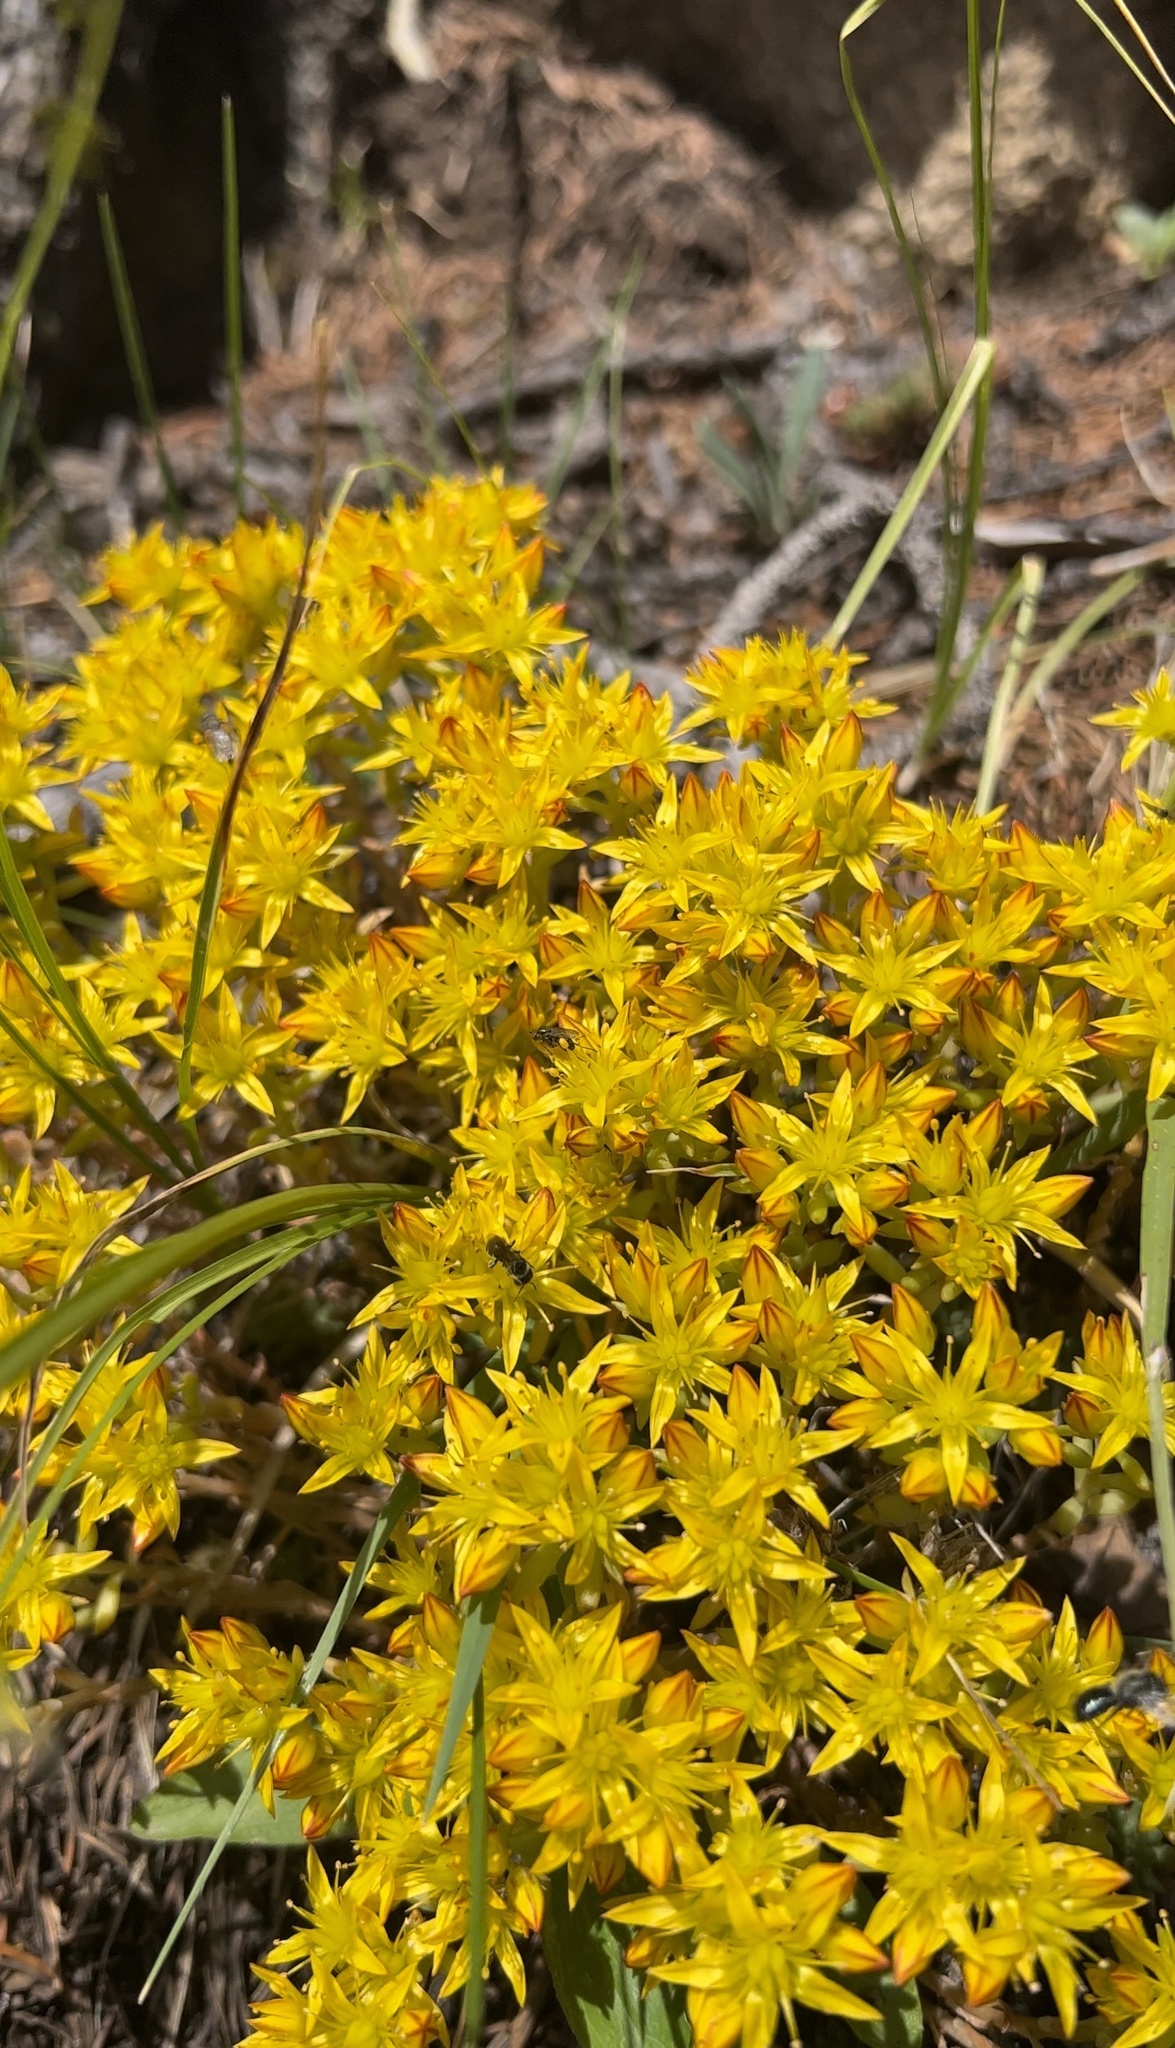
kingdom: Plantae
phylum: Tracheophyta
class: Magnoliopsida
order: Saxifragales
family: Crassulaceae
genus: Sedum
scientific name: Sedum lanceolatum
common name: Common stonecrop
